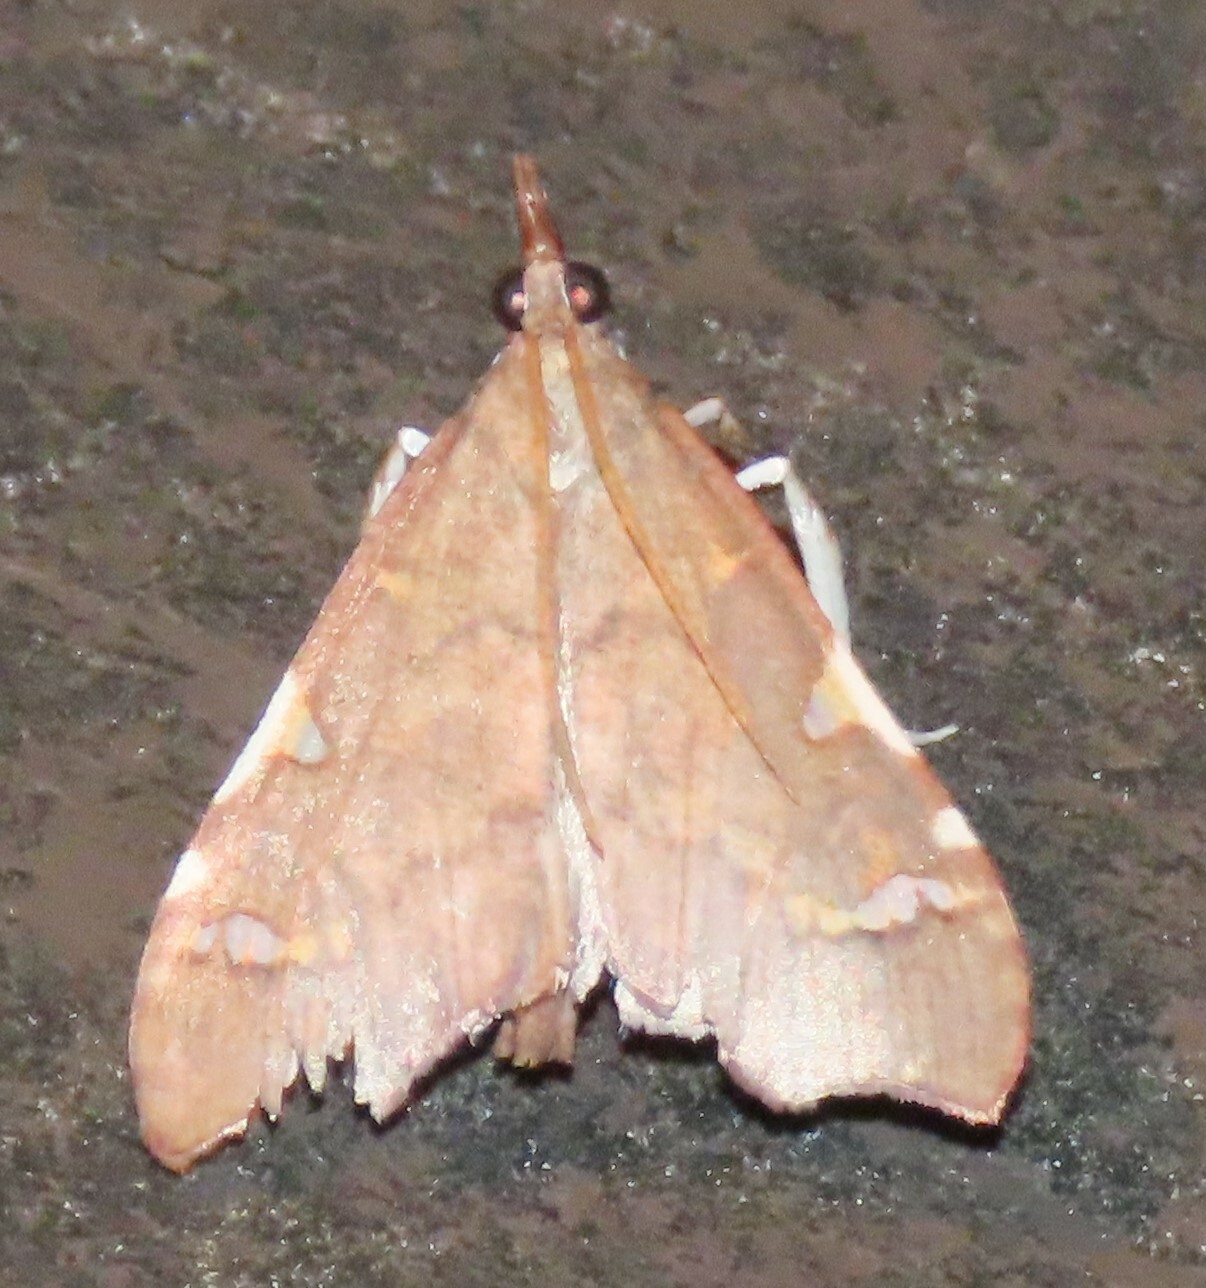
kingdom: Animalia
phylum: Arthropoda
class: Insecta
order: Lepidoptera
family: Crambidae
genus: Deana
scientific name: Deana hybreasalis
